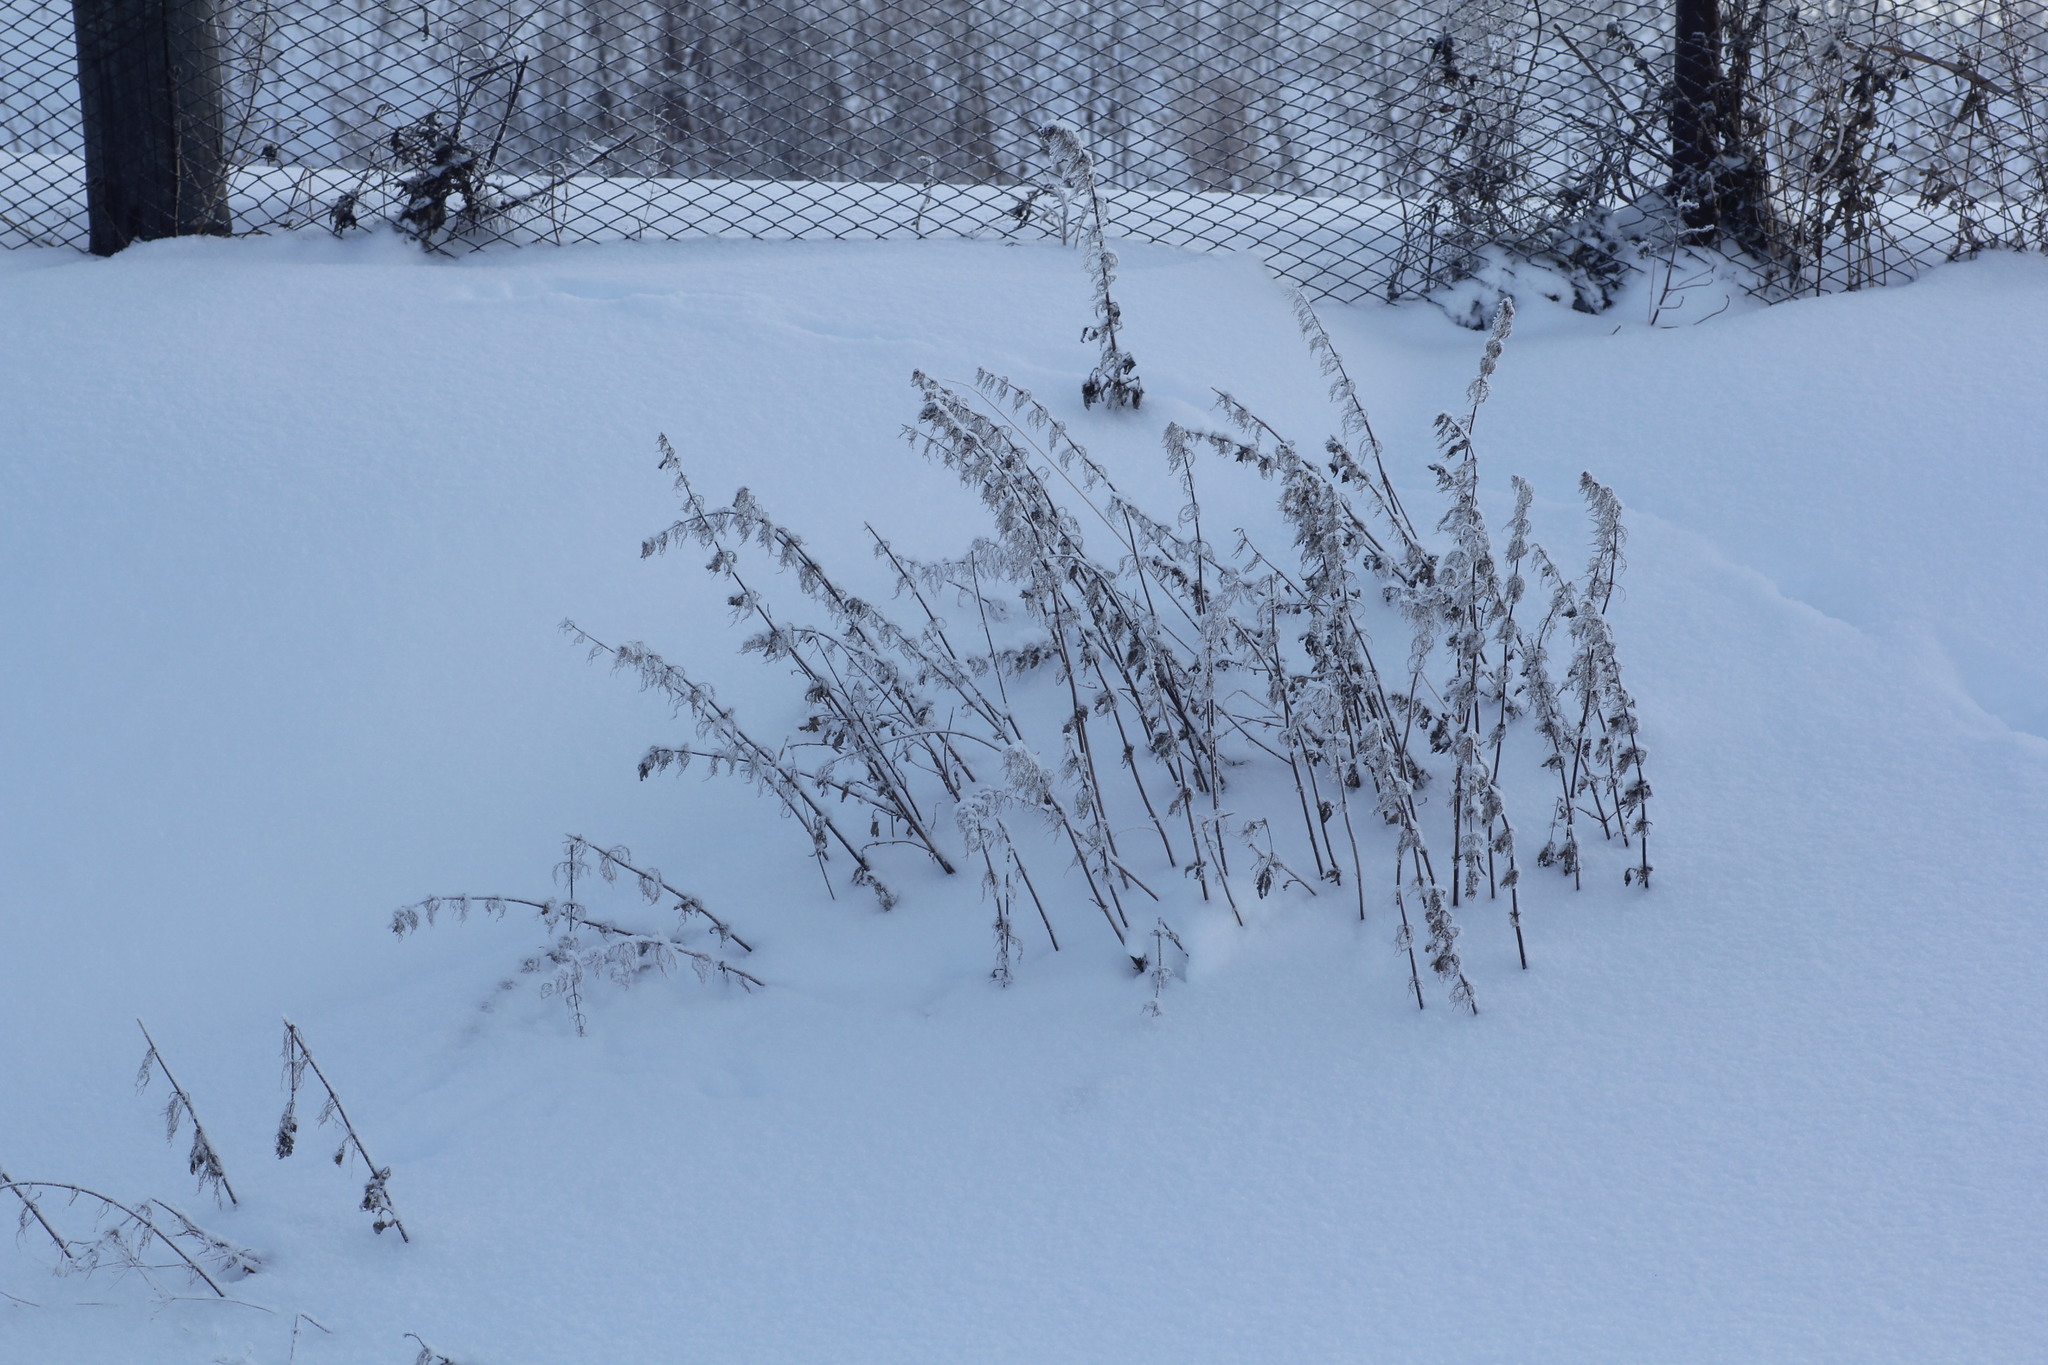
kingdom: Plantae
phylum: Tracheophyta
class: Magnoliopsida
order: Rosales
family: Urticaceae
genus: Urtica
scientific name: Urtica dioica
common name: Common nettle
